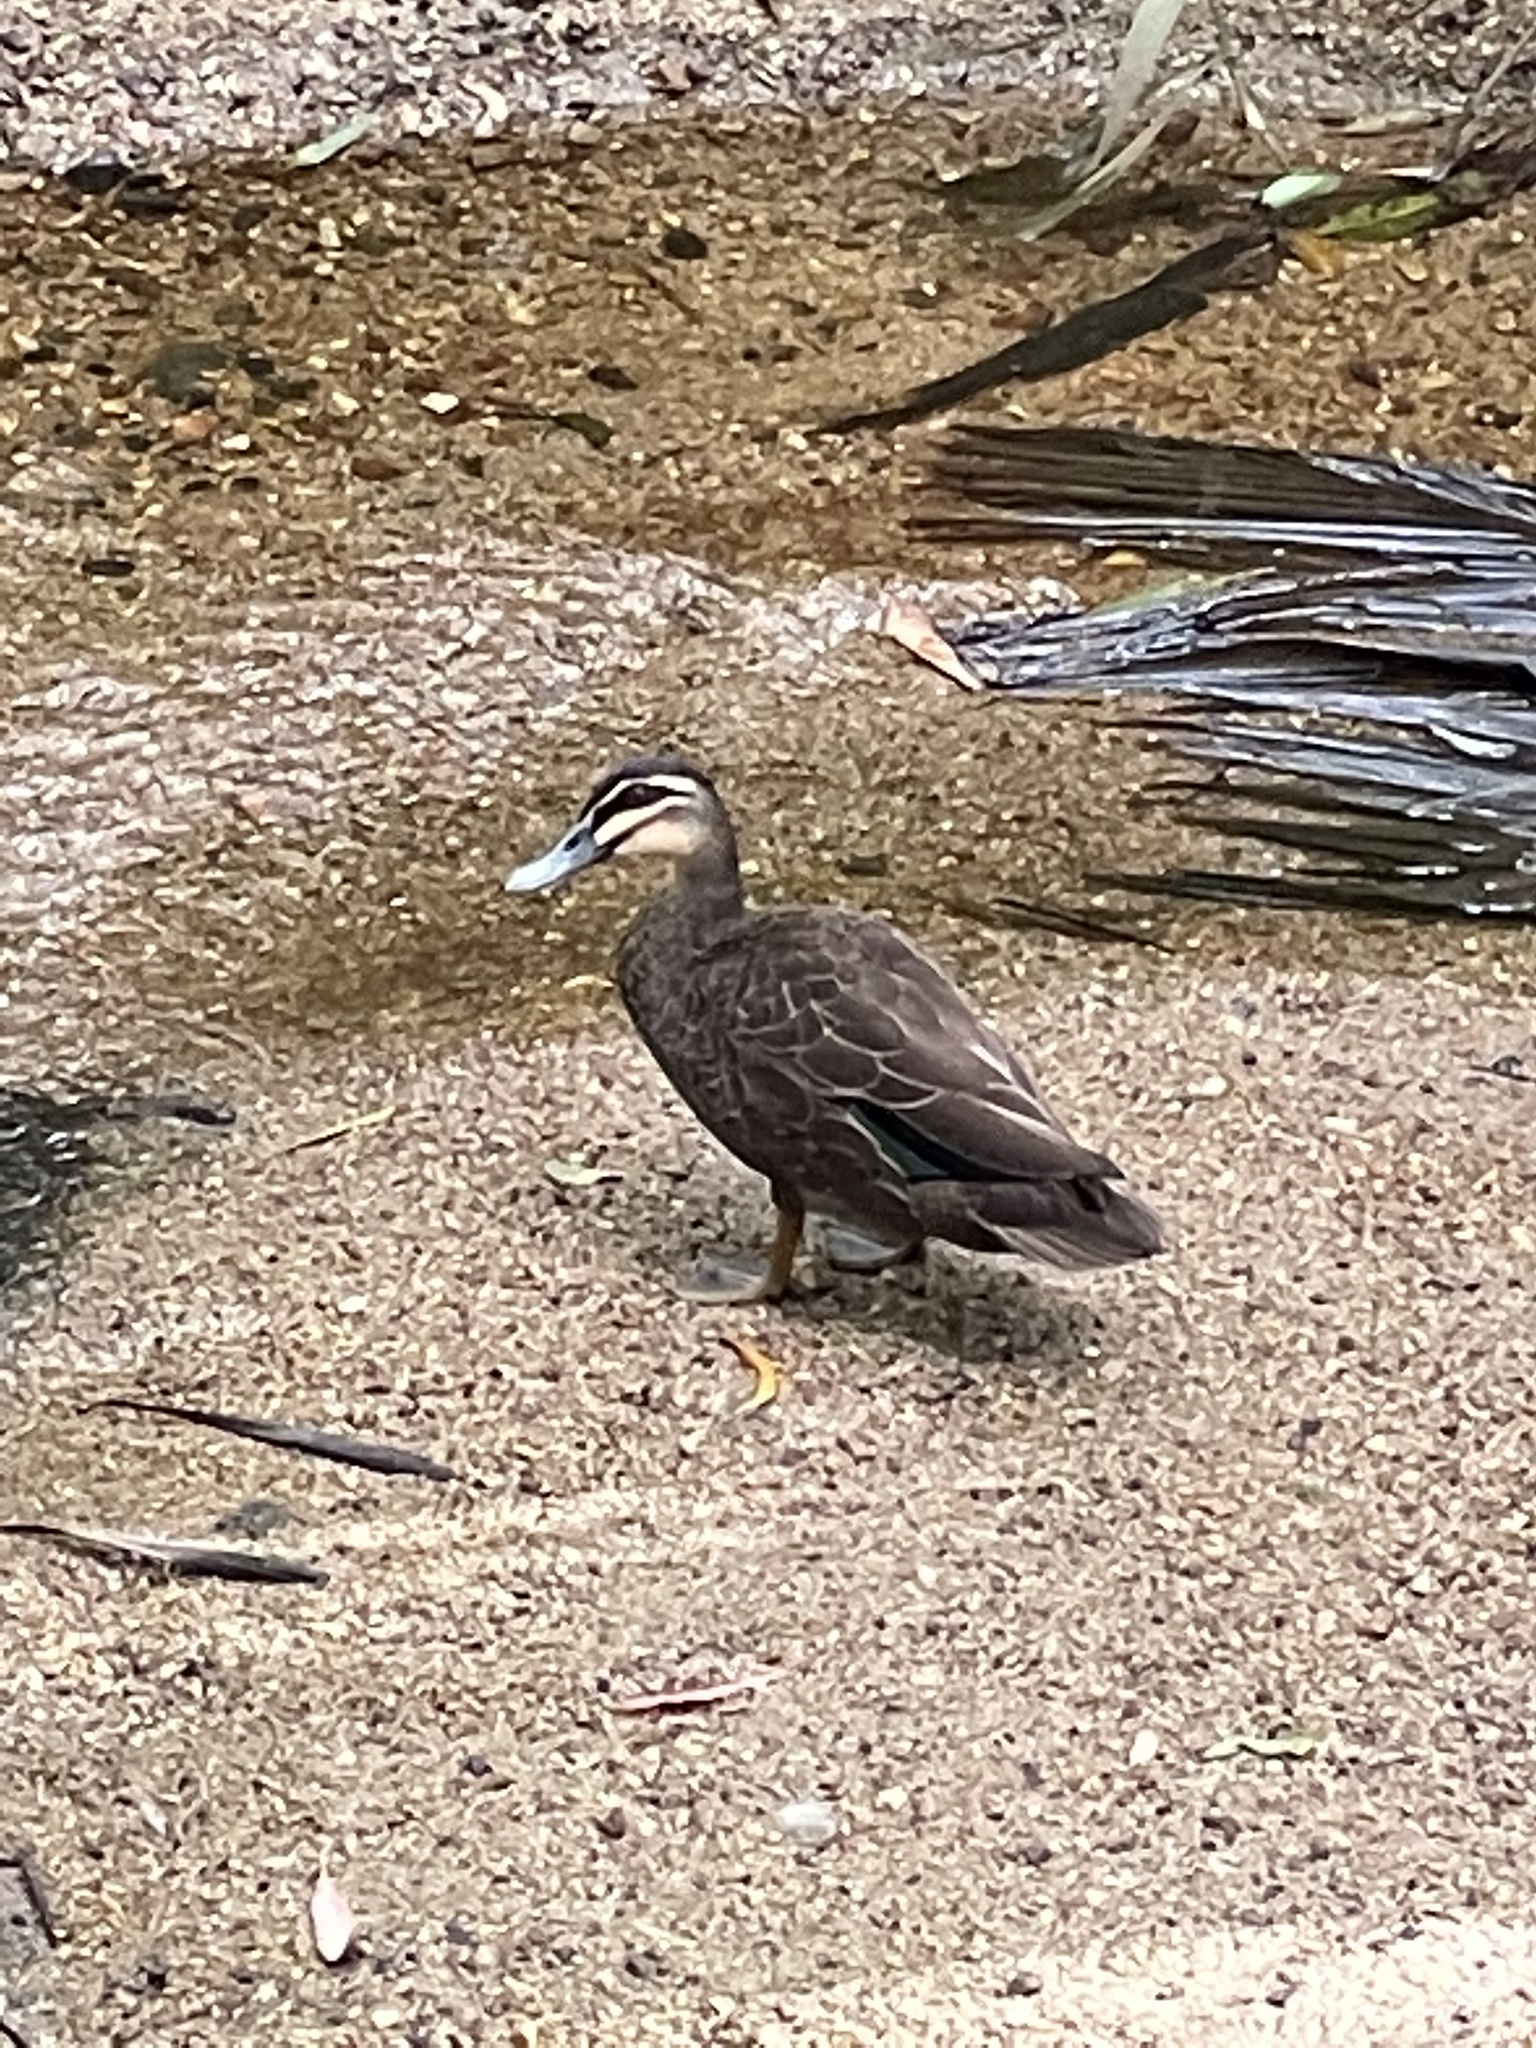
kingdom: Animalia
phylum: Chordata
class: Aves
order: Anseriformes
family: Anatidae
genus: Anas
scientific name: Anas superciliosa
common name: Pacific black duck
